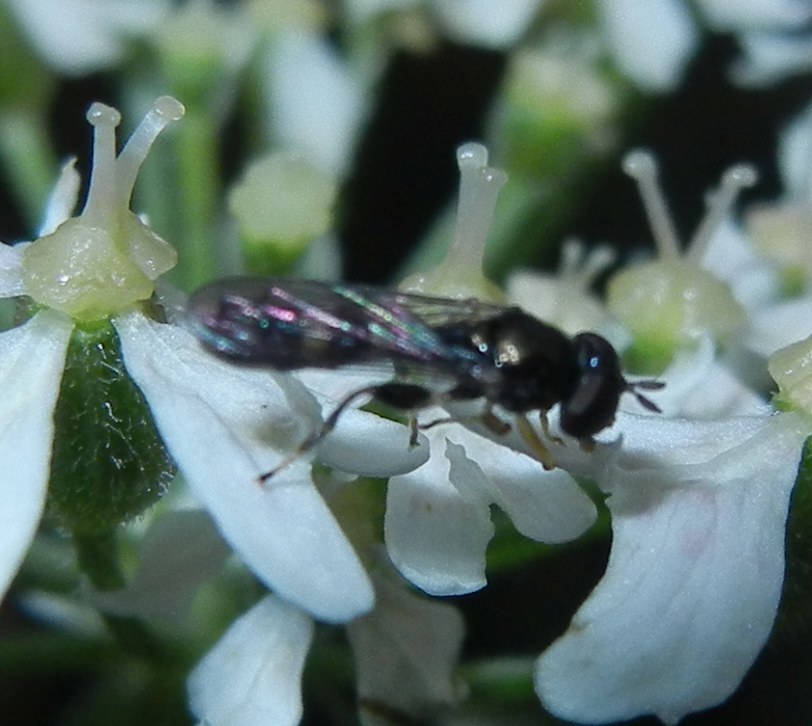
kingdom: Animalia
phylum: Arthropoda
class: Insecta
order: Diptera
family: Syrphidae
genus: Neoascia
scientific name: Neoascia
